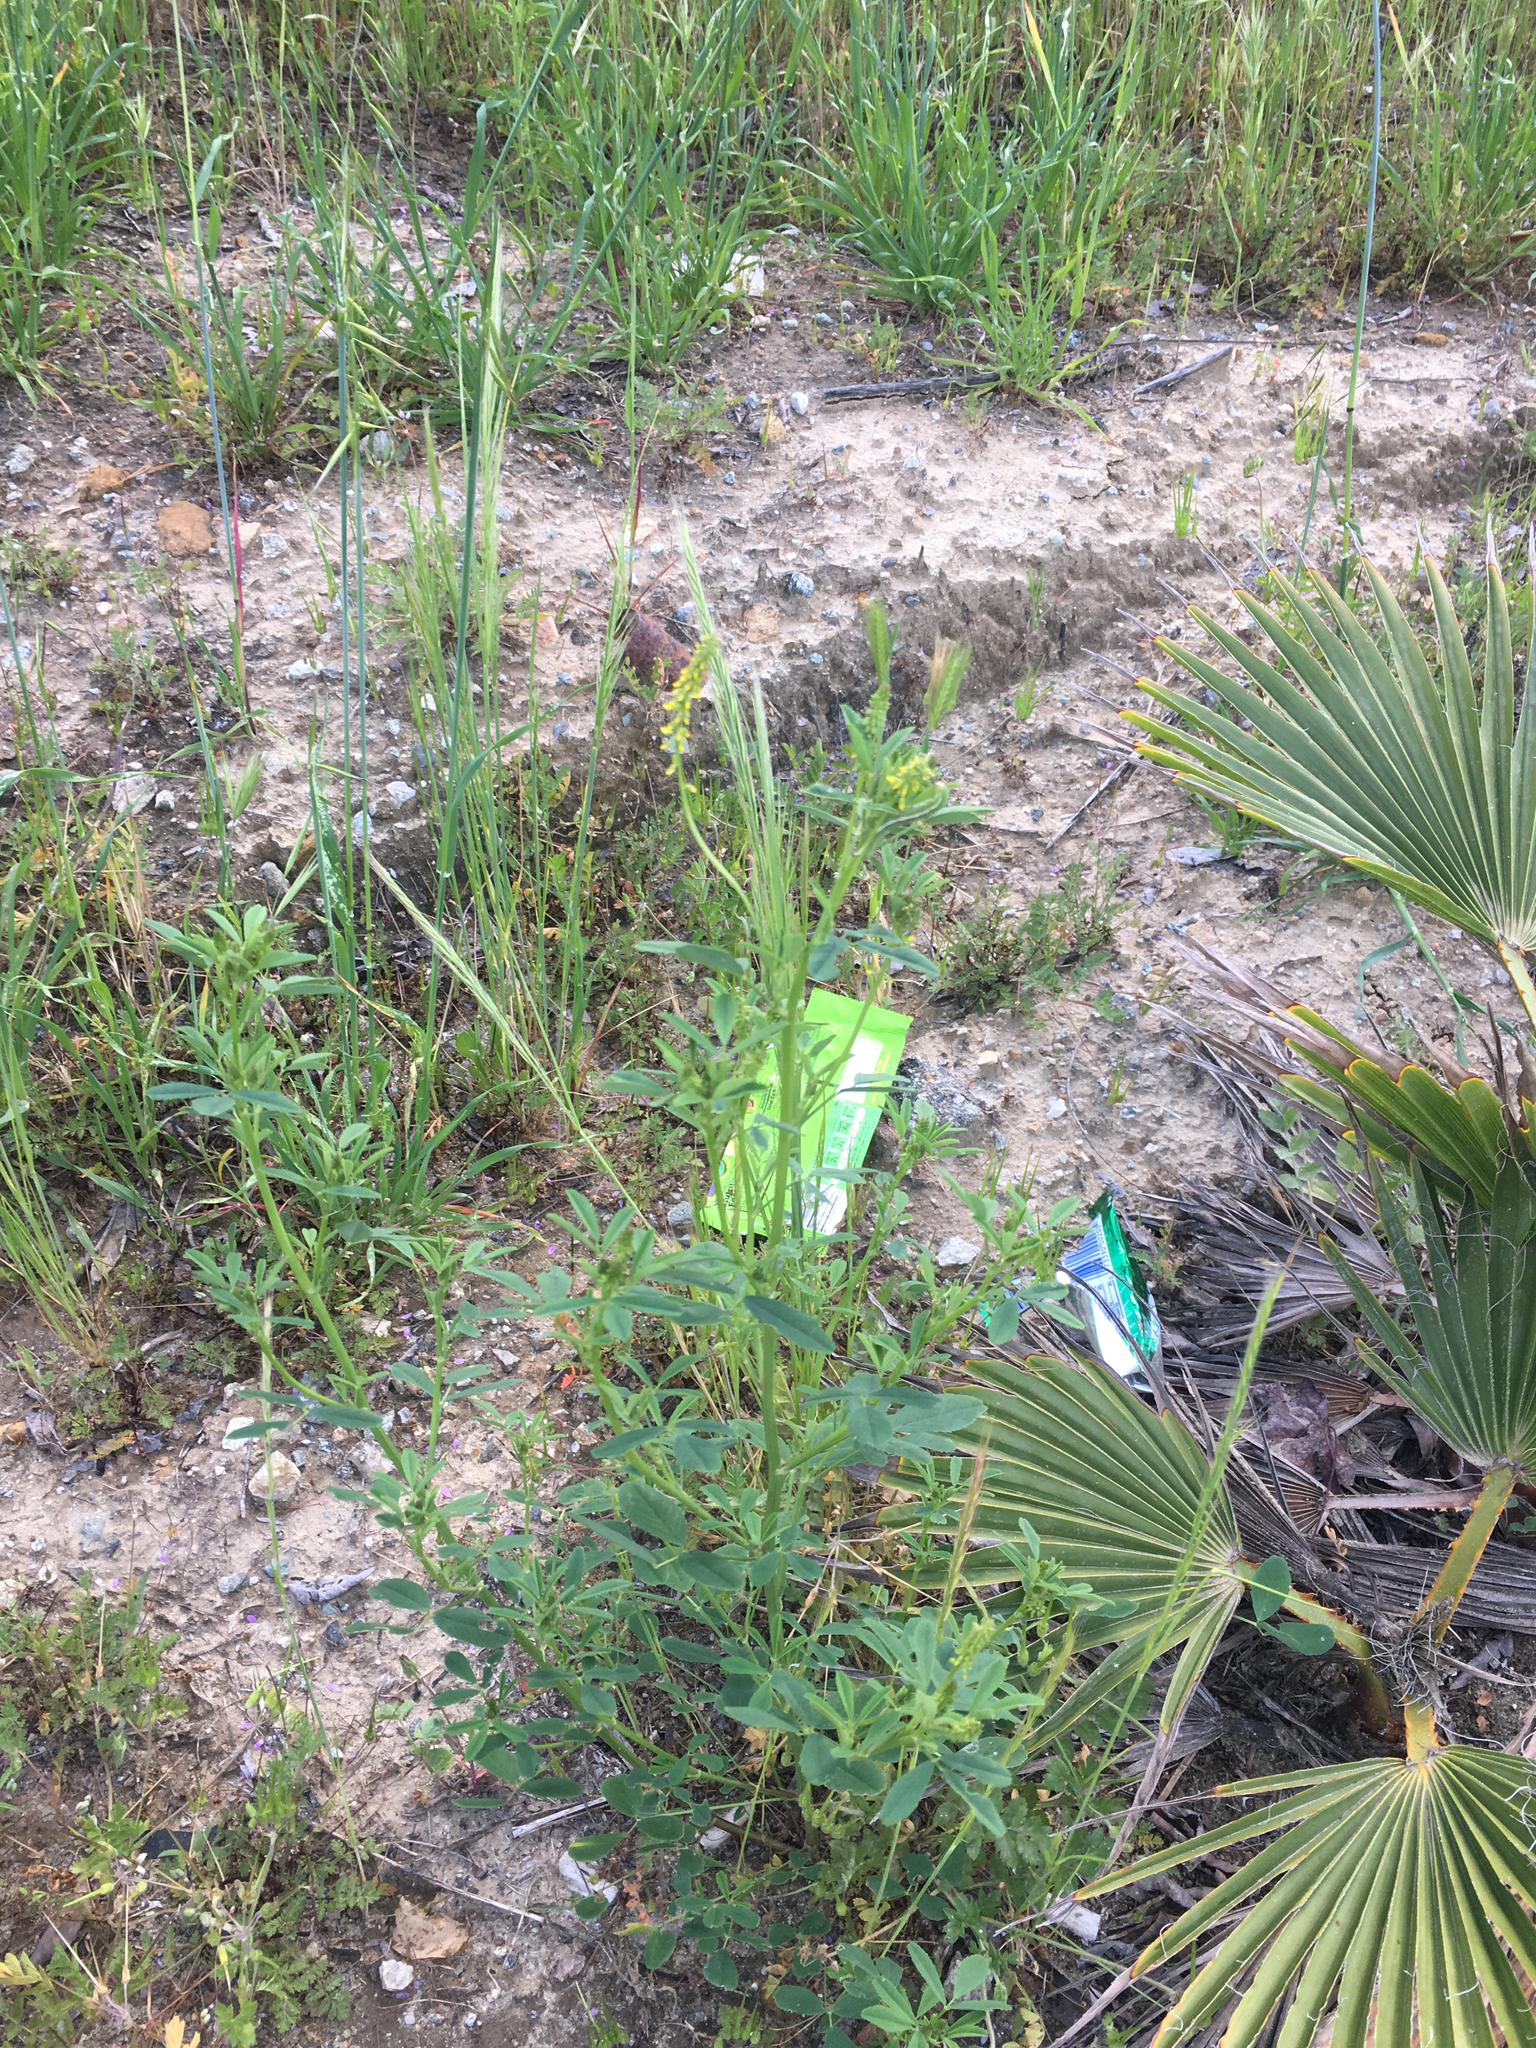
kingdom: Plantae
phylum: Tracheophyta
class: Magnoliopsida
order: Fabales
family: Fabaceae
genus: Melilotus
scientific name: Melilotus indicus
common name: Small melilot
